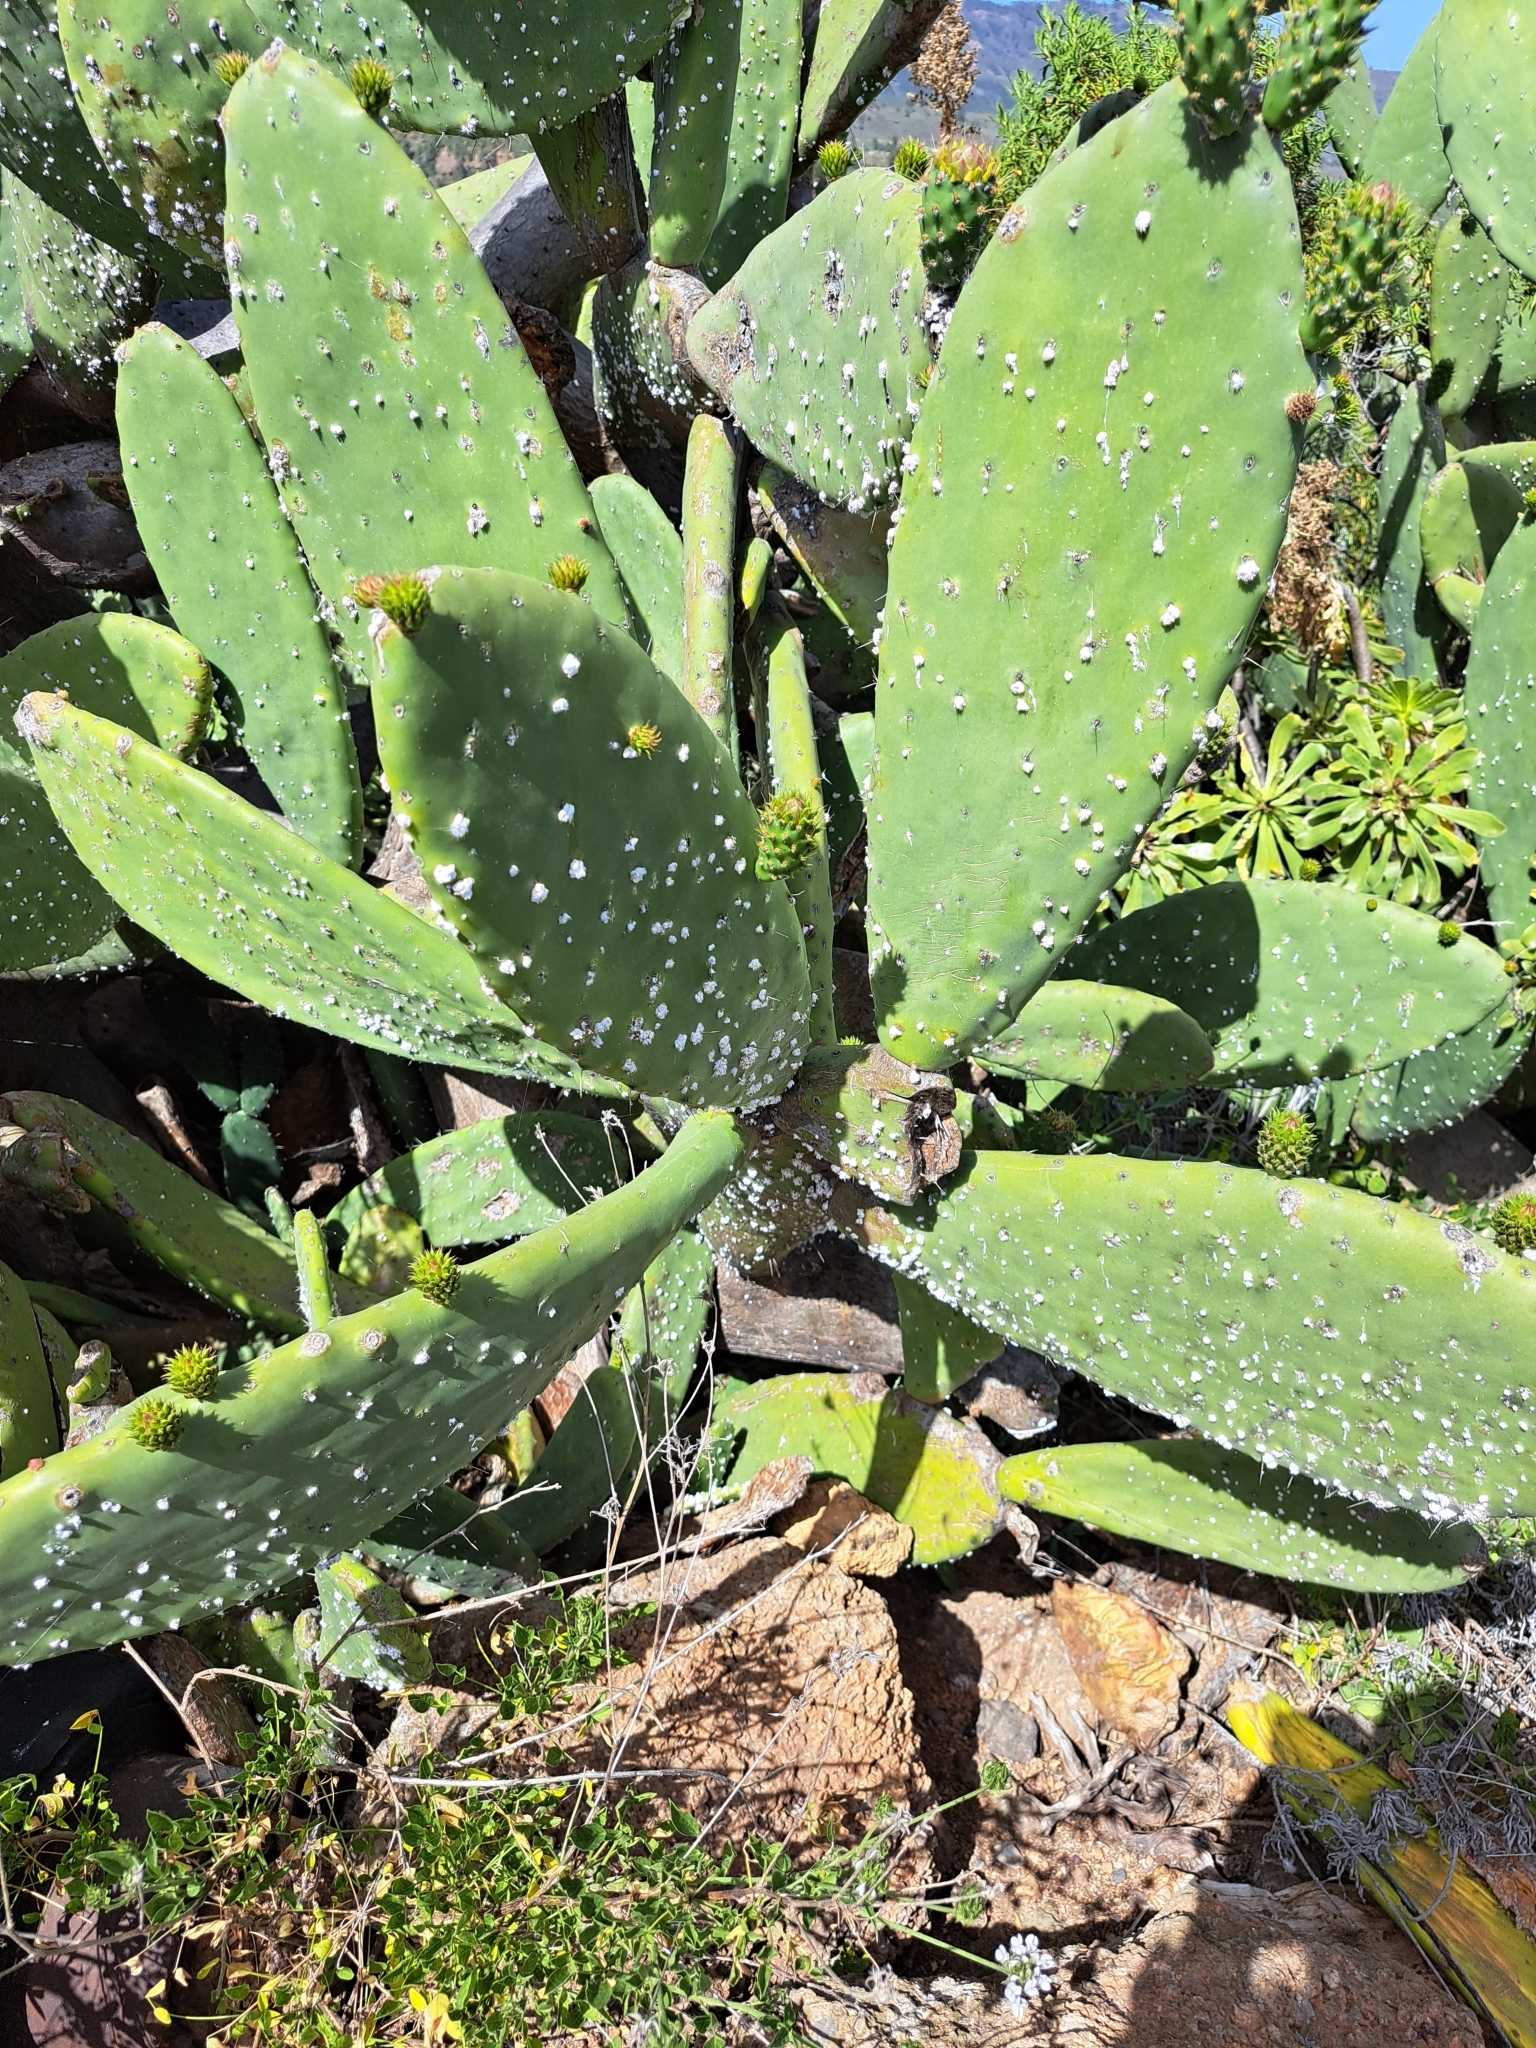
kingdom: Plantae
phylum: Tracheophyta
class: Magnoliopsida
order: Caryophyllales
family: Cactaceae
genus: Opuntia
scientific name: Opuntia ficus-indica
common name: Barbary fig
